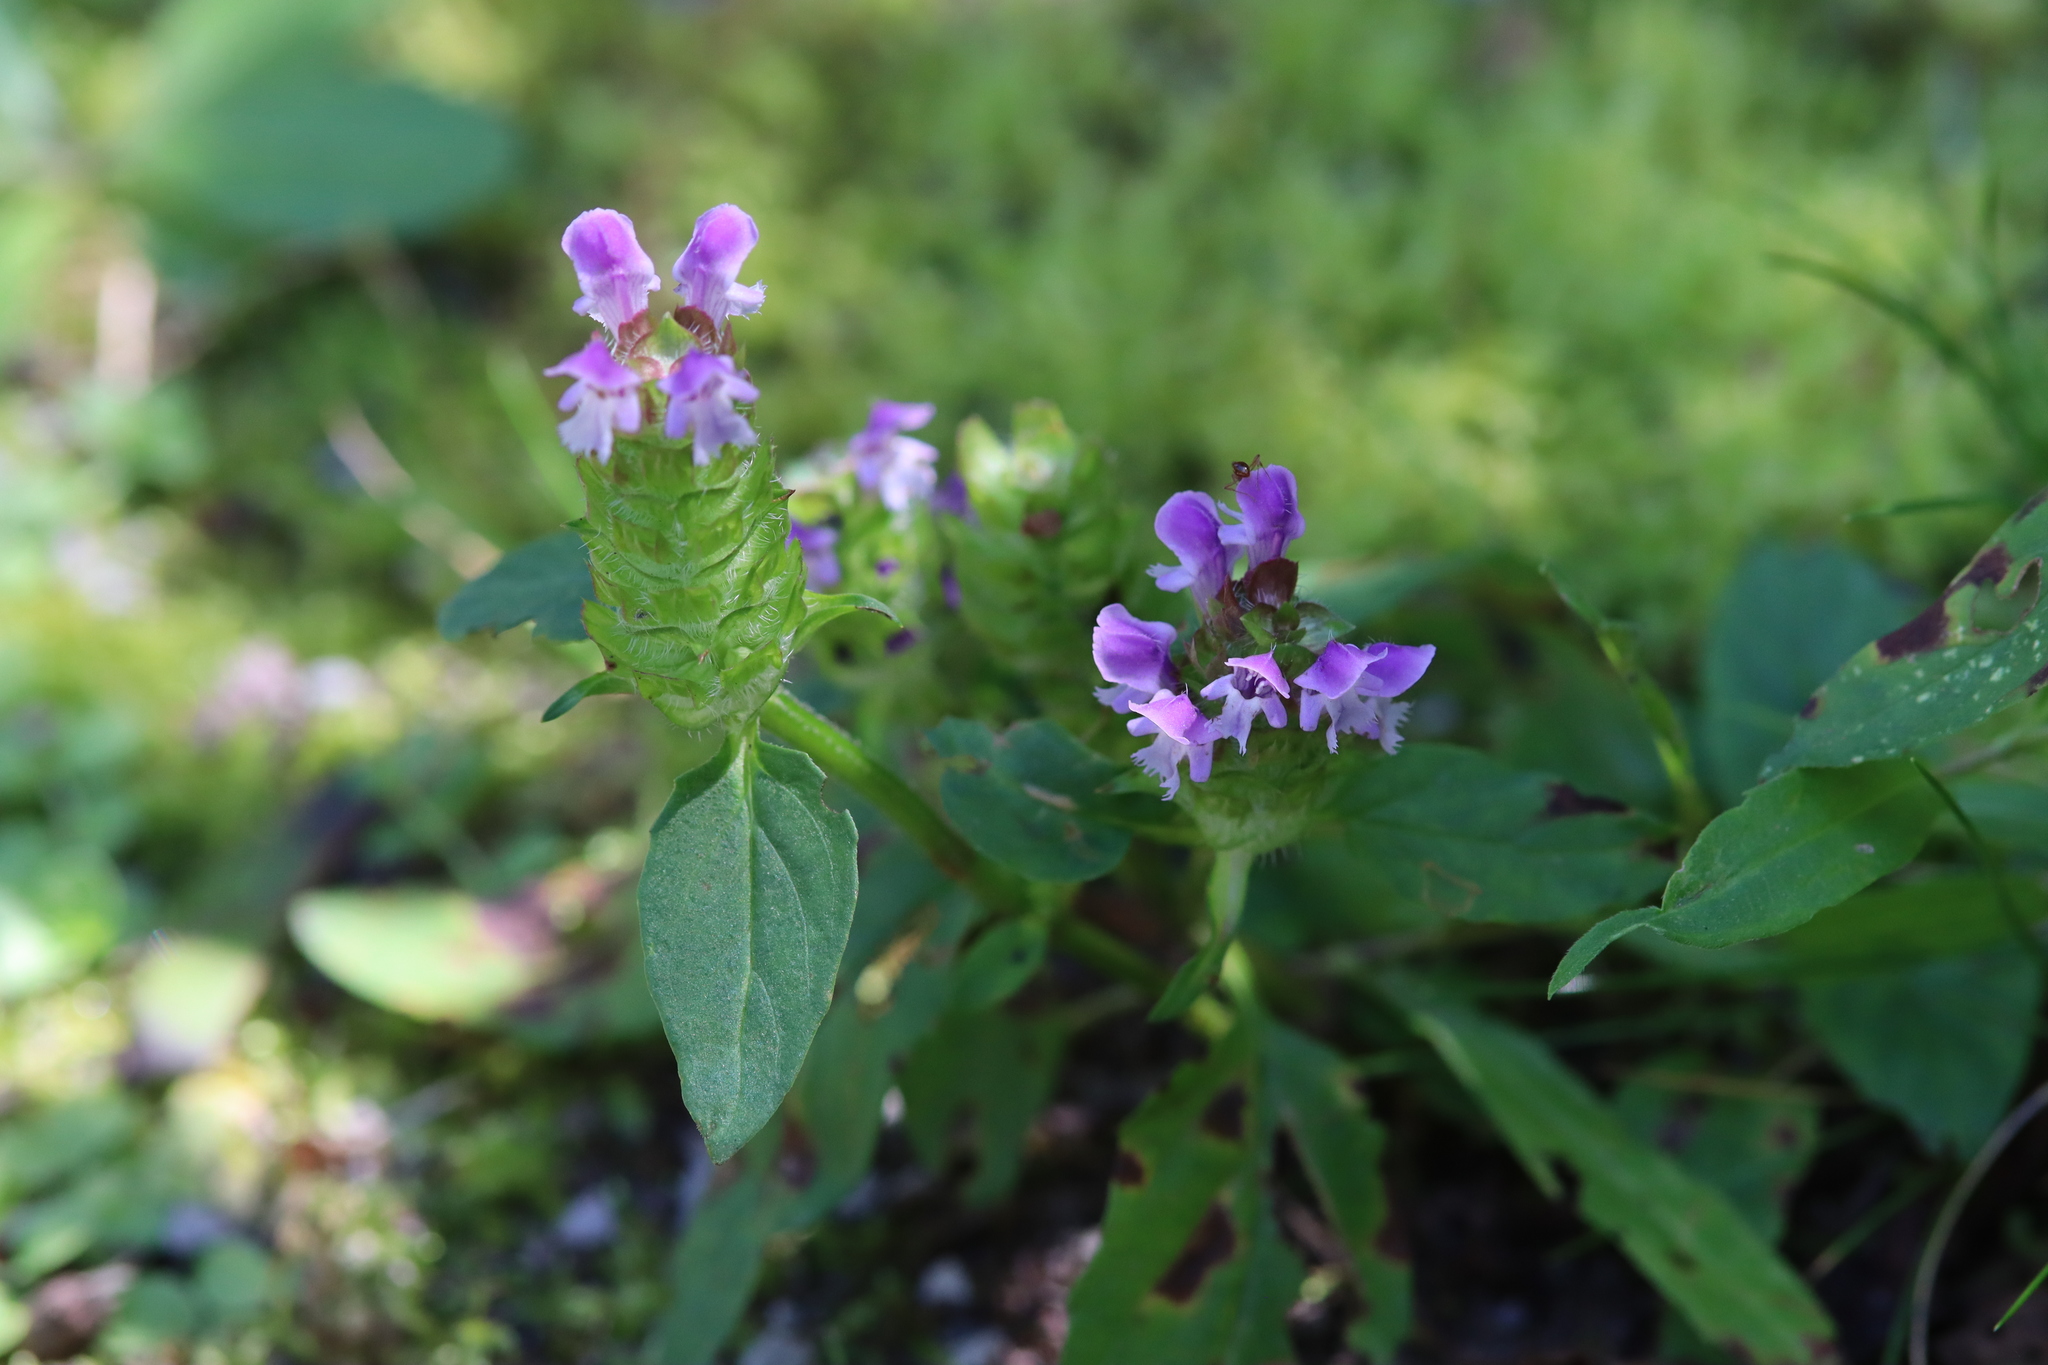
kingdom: Plantae
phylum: Tracheophyta
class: Magnoliopsida
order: Lamiales
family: Lamiaceae
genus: Prunella
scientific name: Prunella vulgaris
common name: Heal-all
